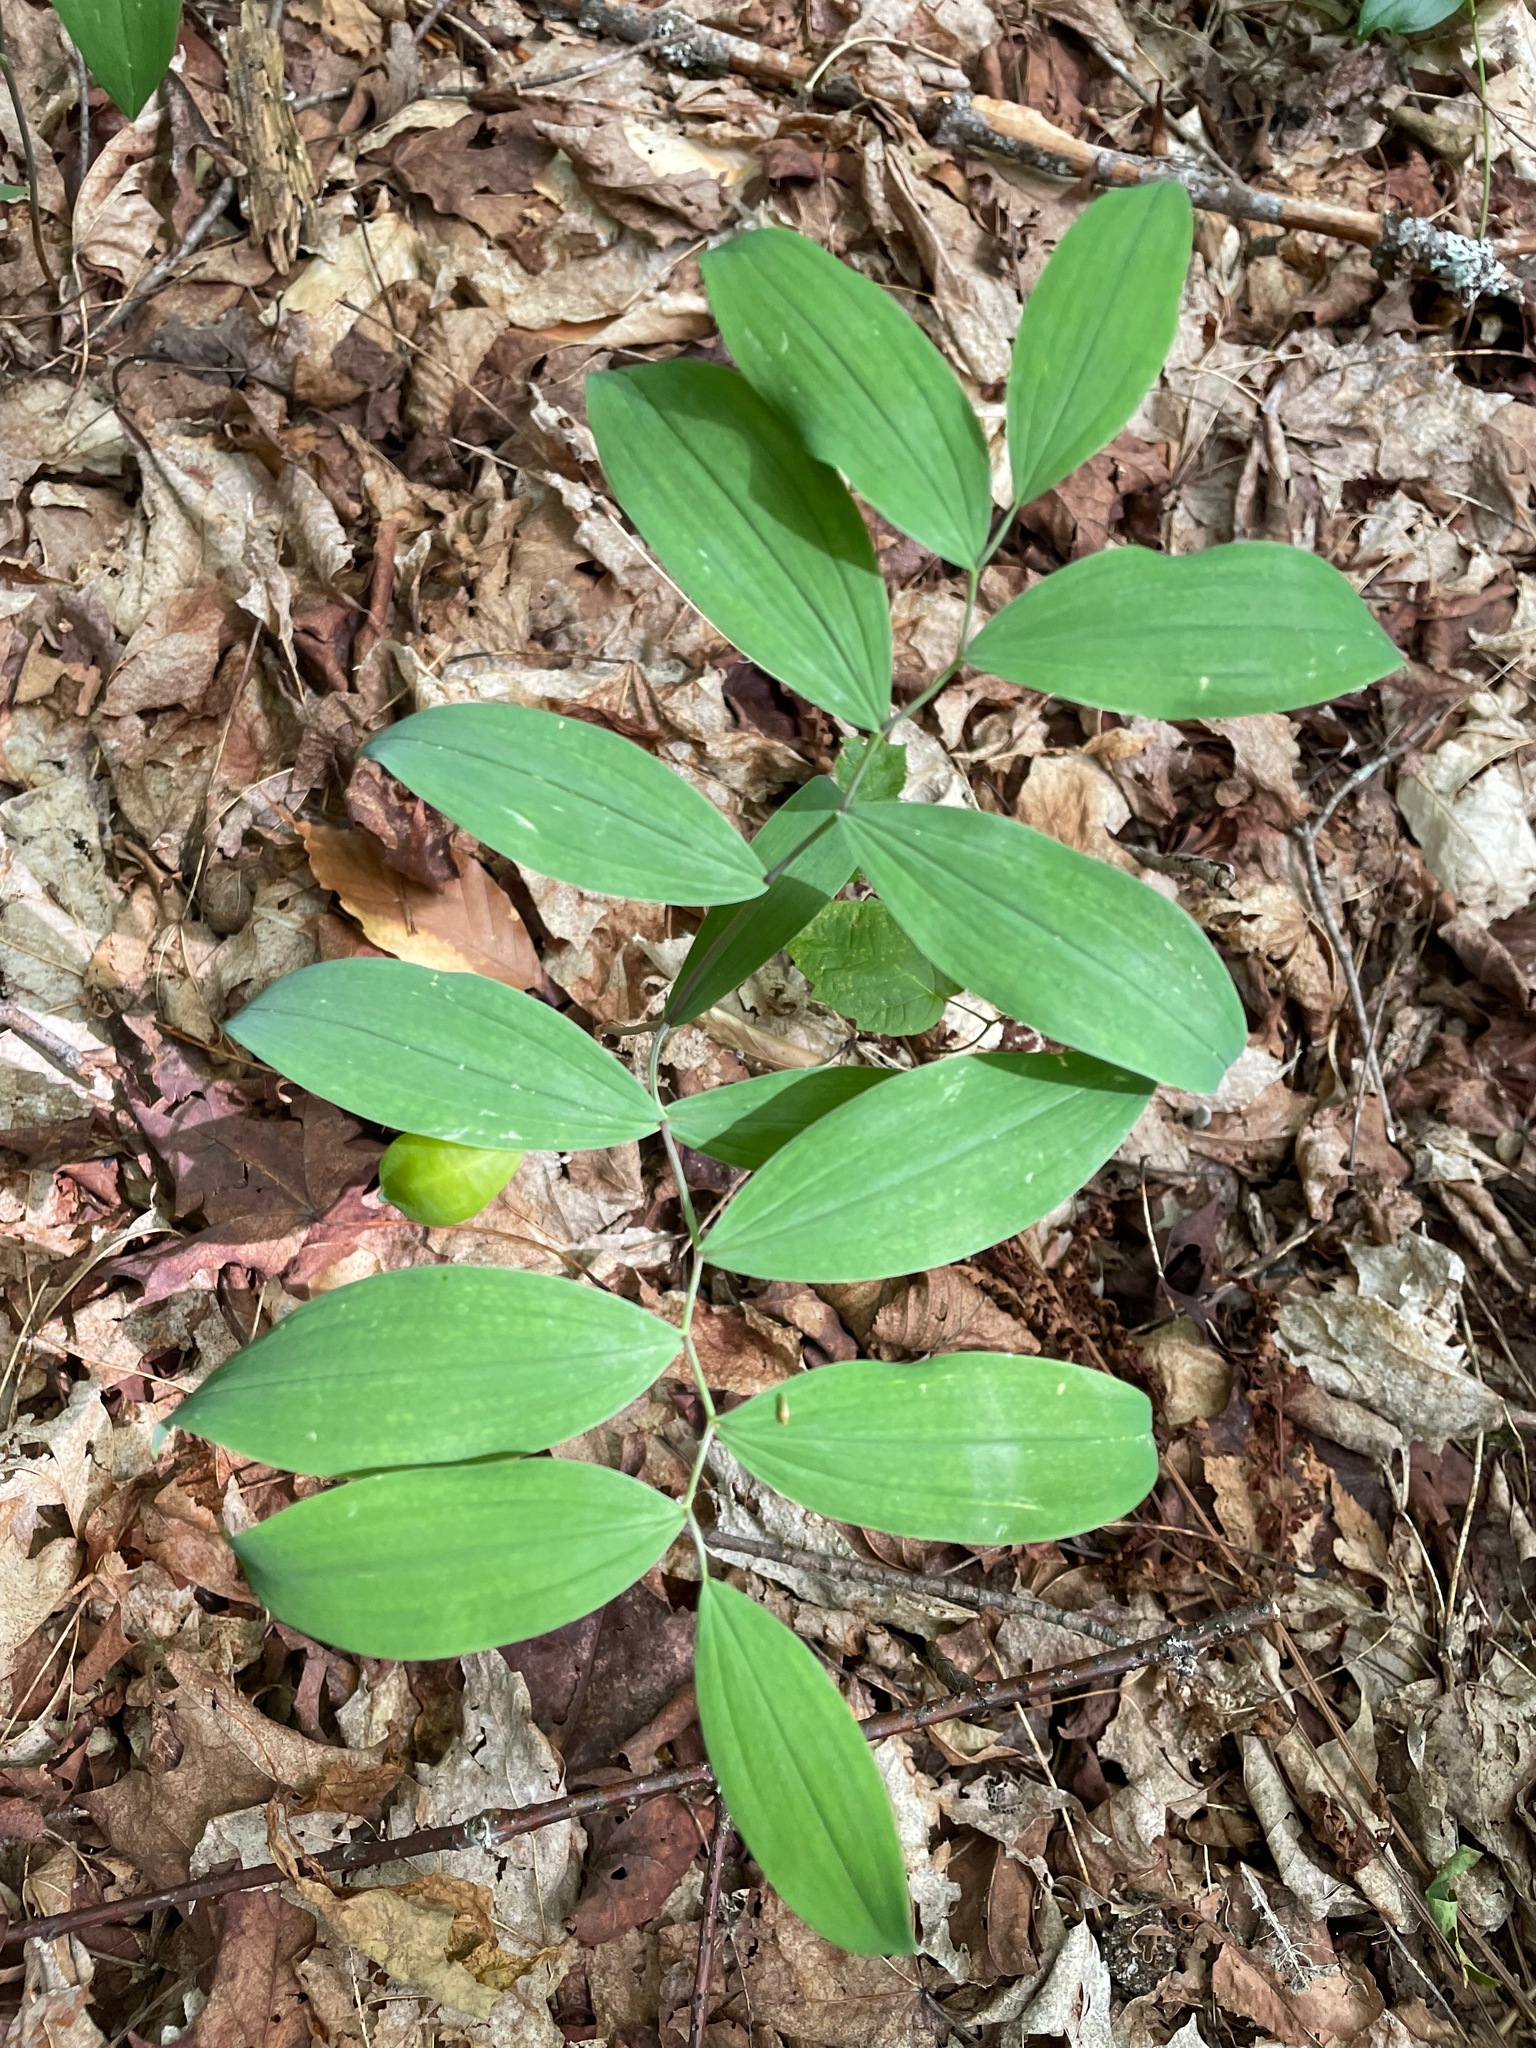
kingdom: Plantae
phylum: Tracheophyta
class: Liliopsida
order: Liliales
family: Colchicaceae
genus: Uvularia
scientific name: Uvularia sessilifolia
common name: Straw-lily
